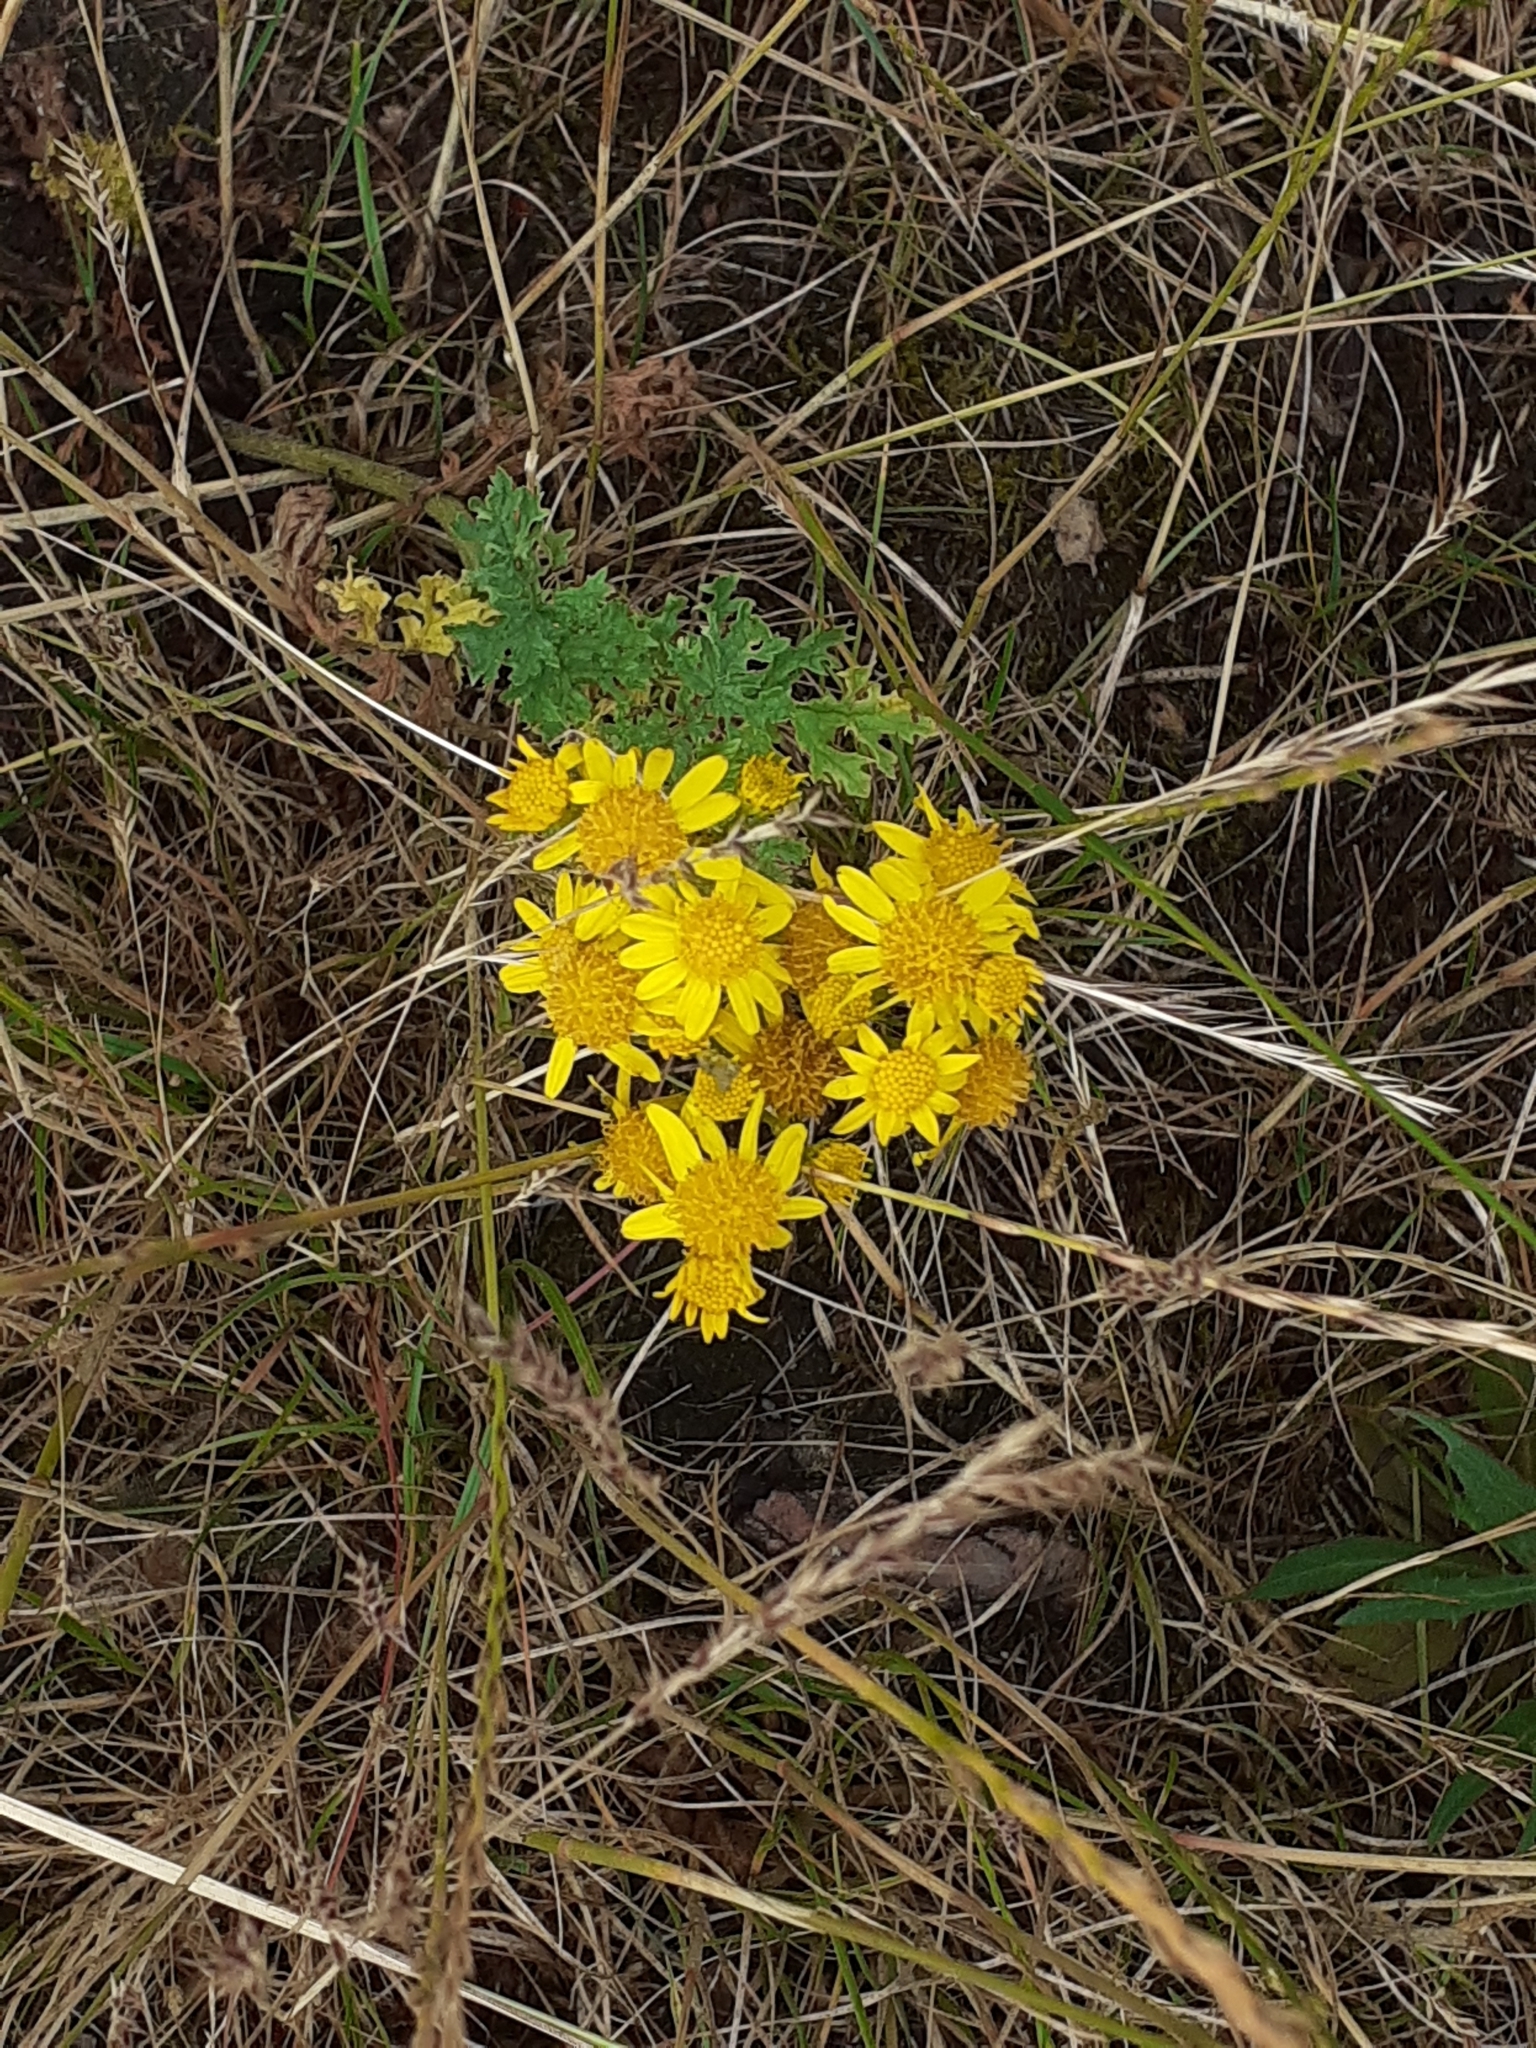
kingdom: Plantae
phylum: Tracheophyta
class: Magnoliopsida
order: Asterales
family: Asteraceae
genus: Jacobaea
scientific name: Jacobaea vulgaris
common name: Stinking willie
